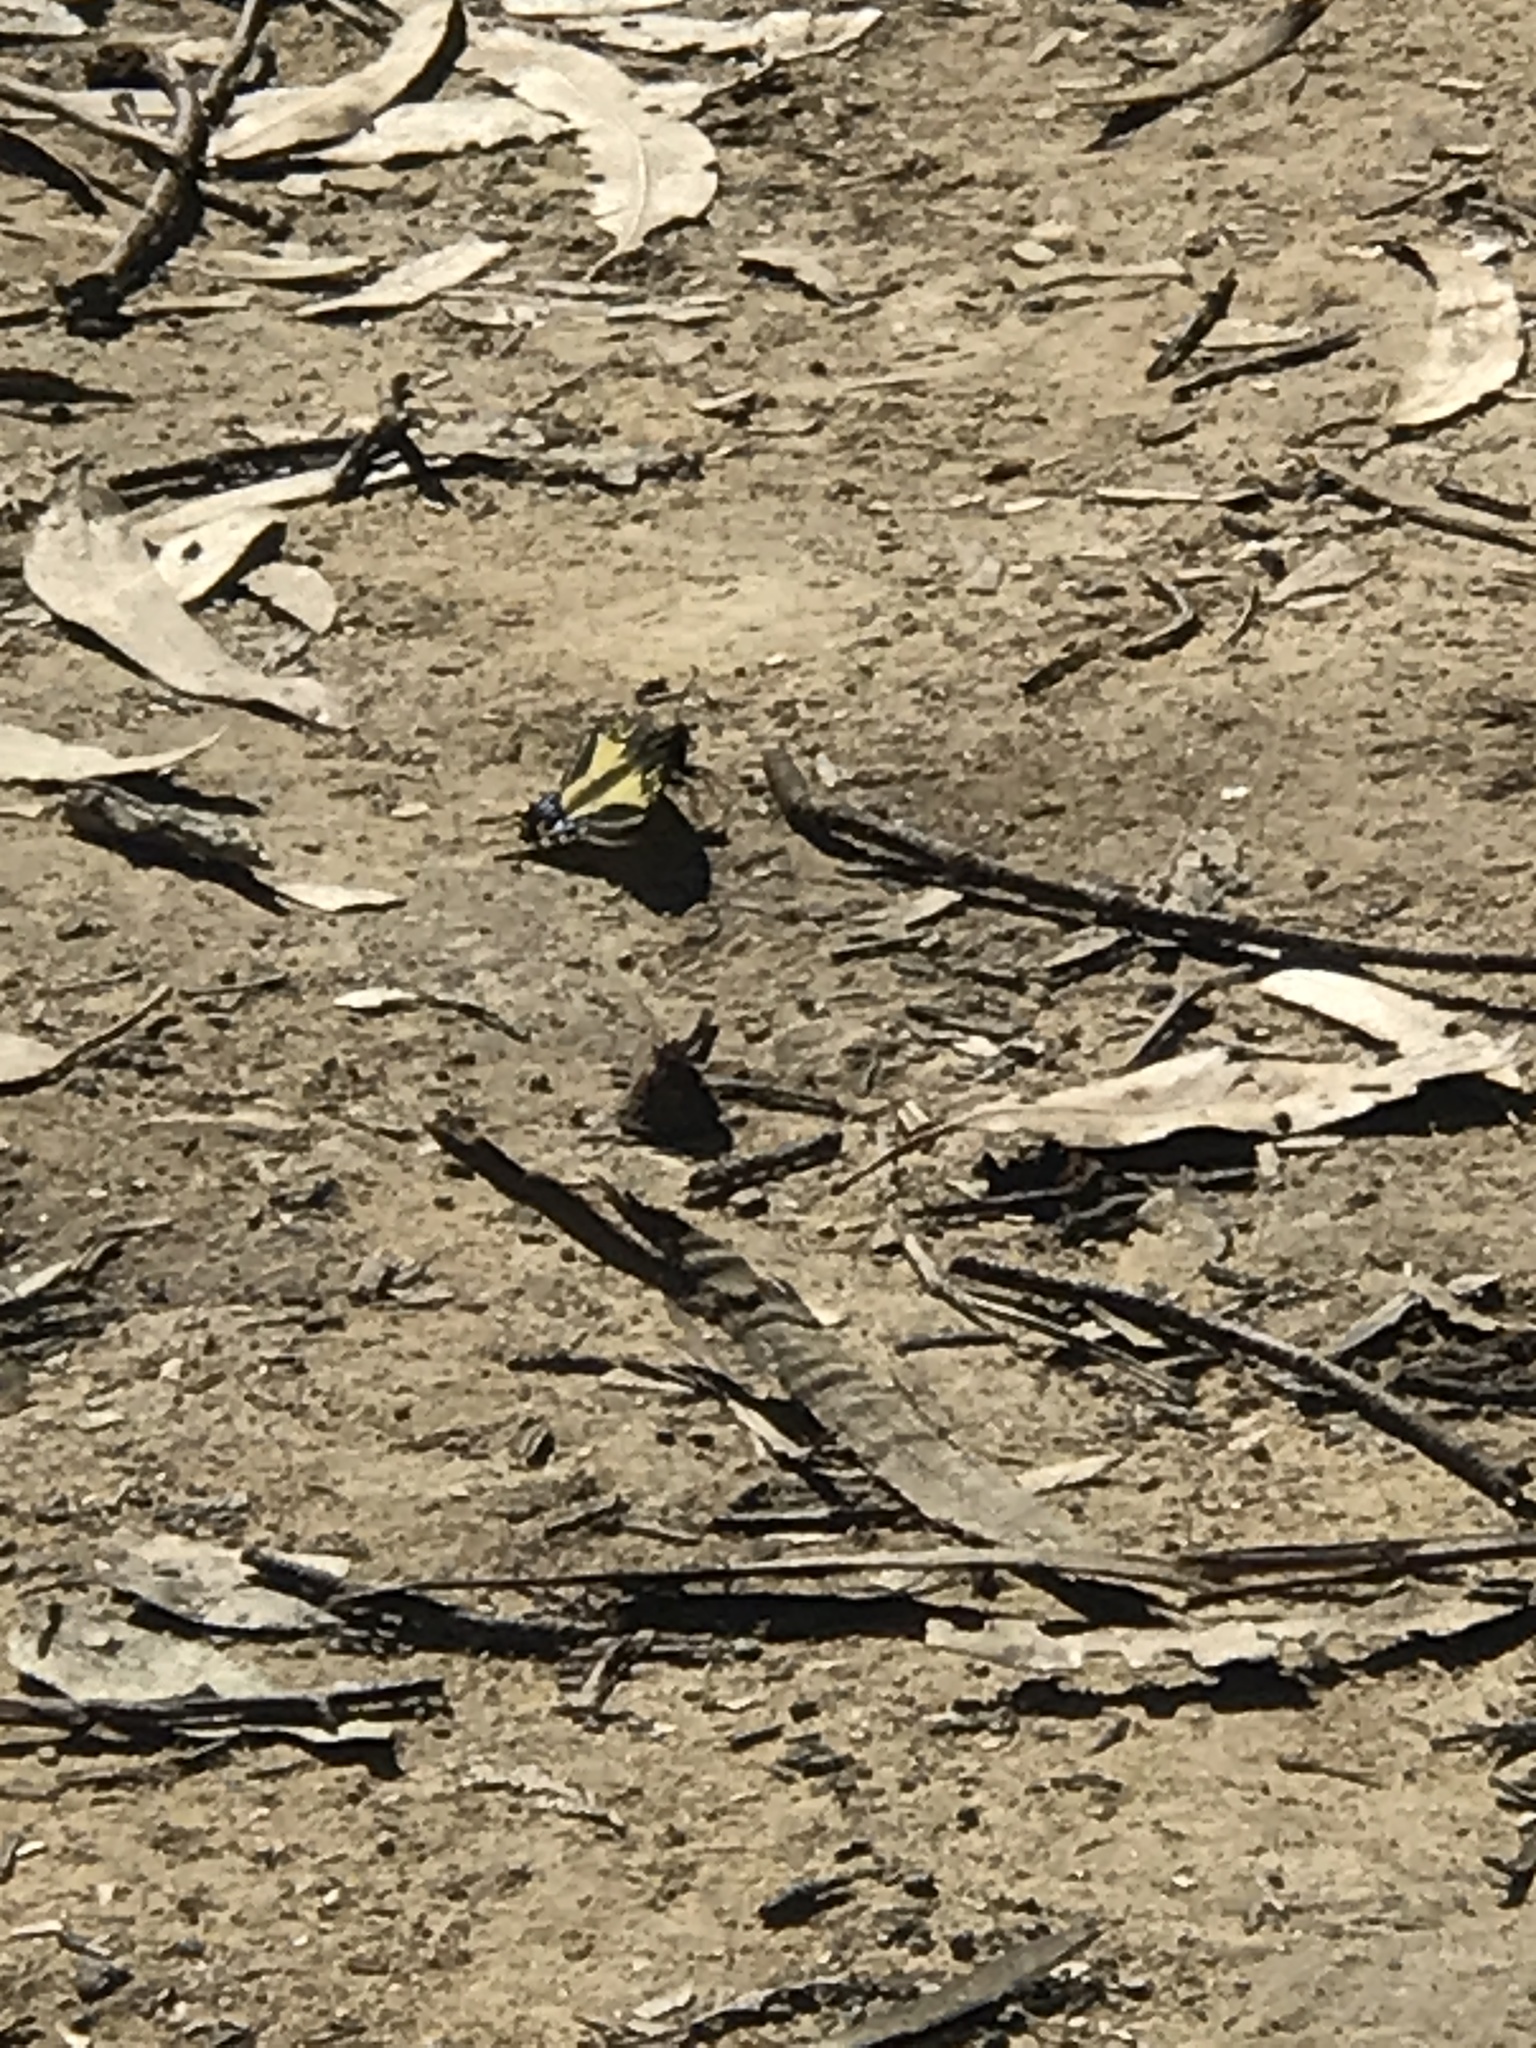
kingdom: Animalia
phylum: Arthropoda
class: Insecta
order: Lepidoptera
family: Papilionidae
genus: Papilio
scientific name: Papilio zelicaon
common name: Anise swallowtail
